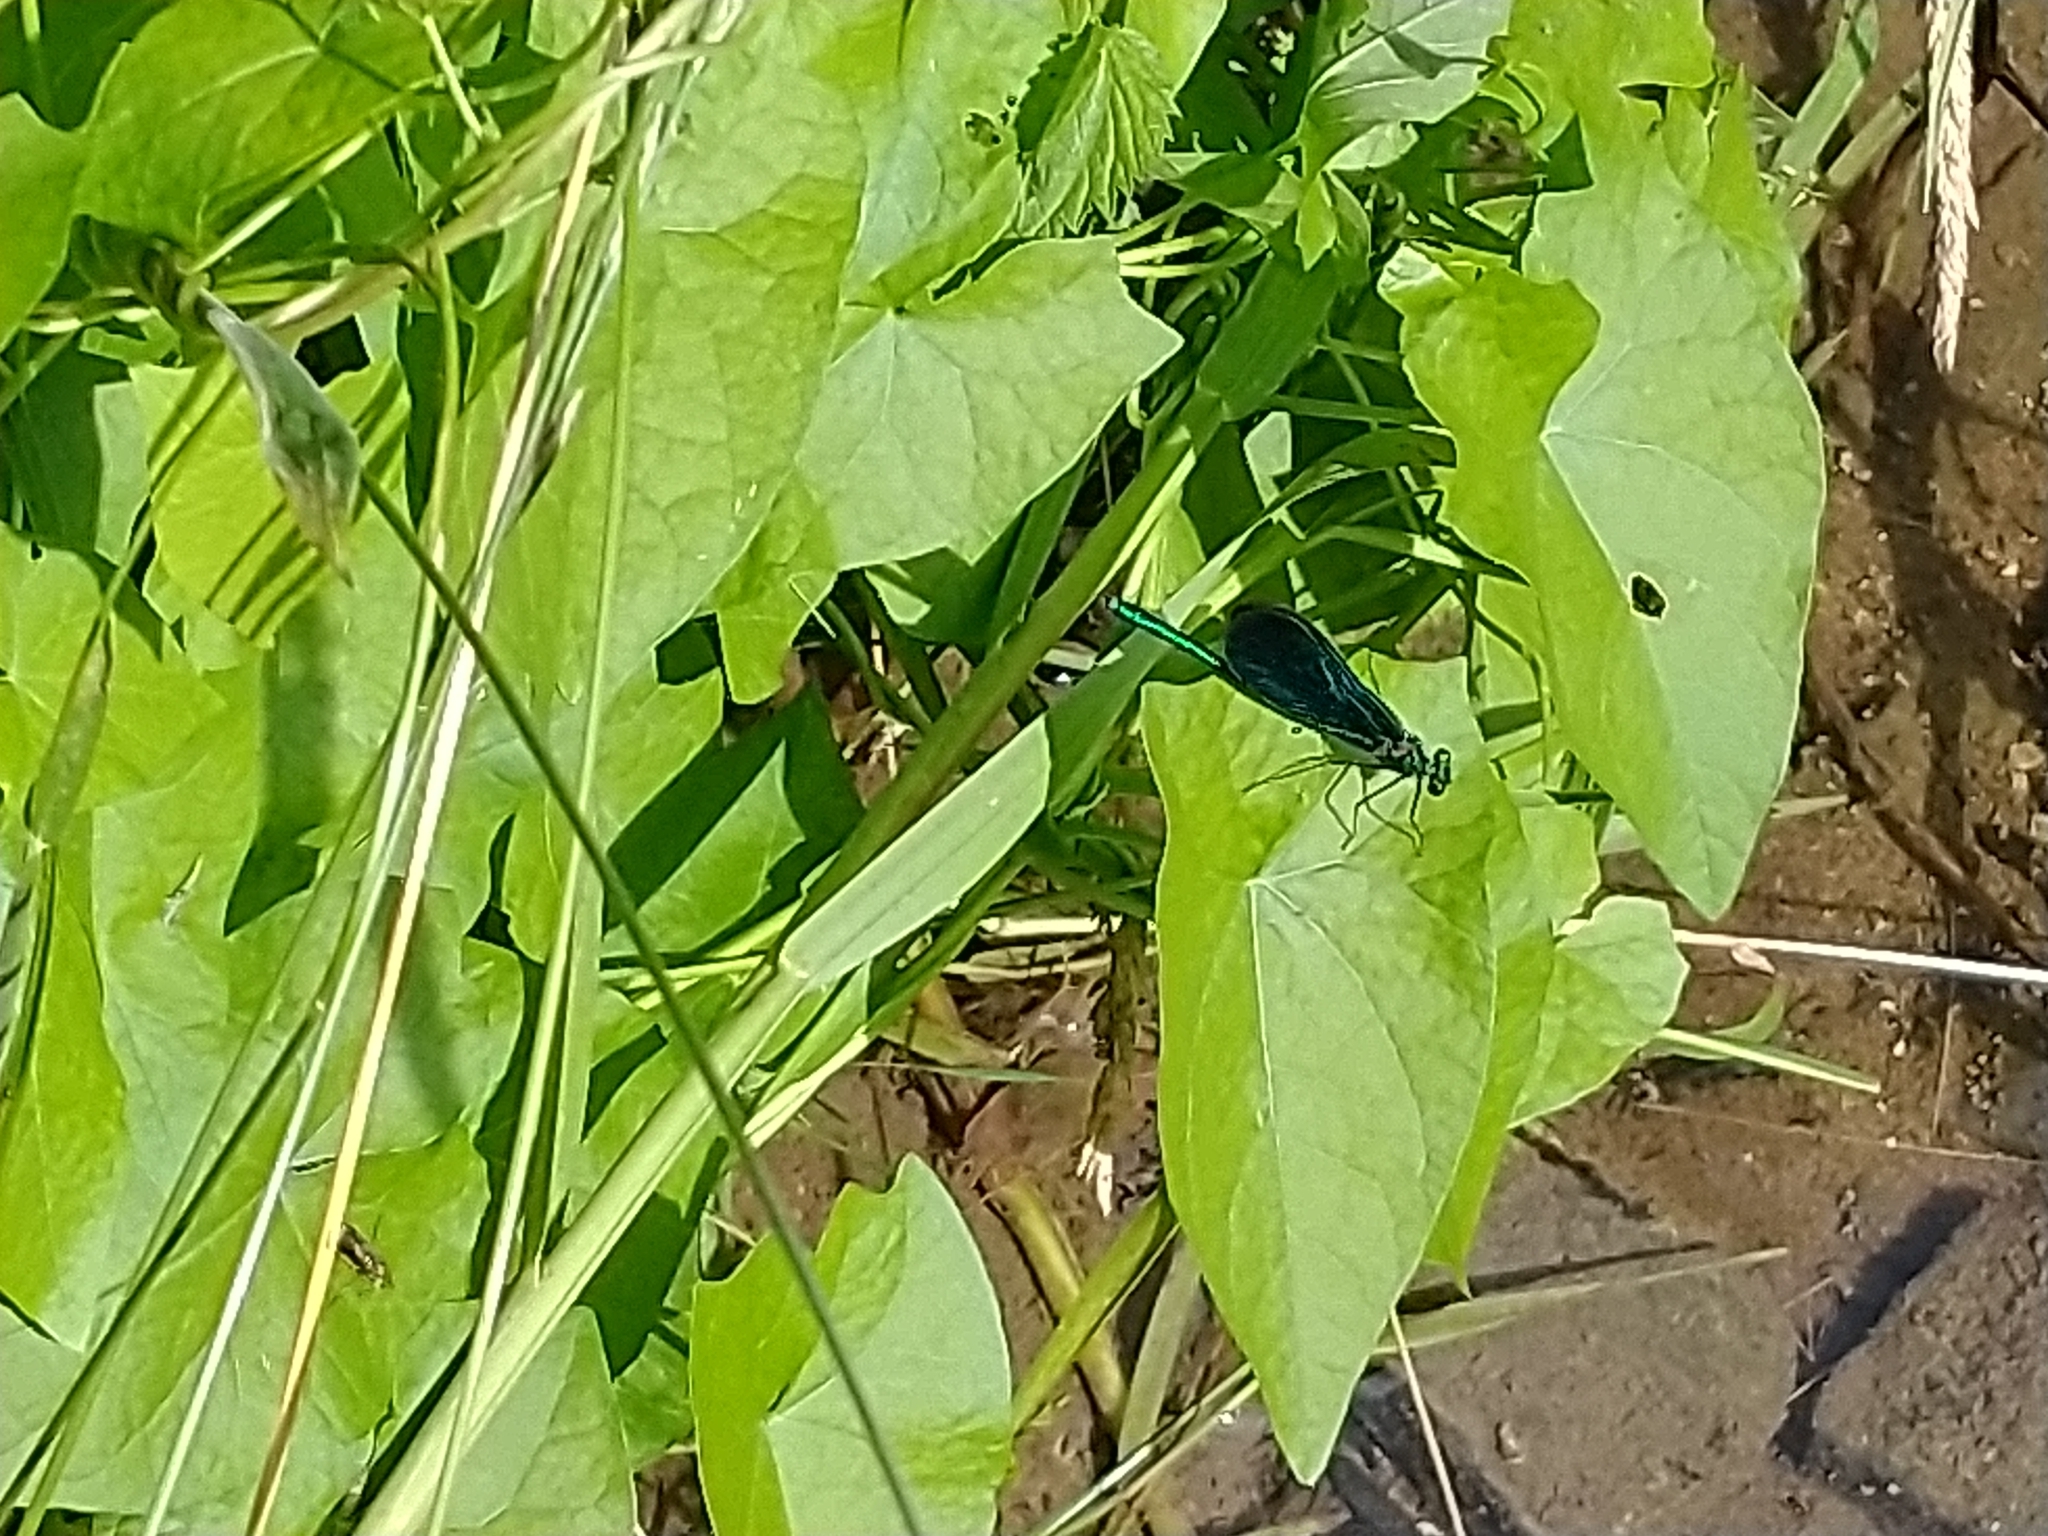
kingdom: Animalia
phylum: Arthropoda
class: Insecta
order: Odonata
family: Calopterygidae
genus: Calopteryx
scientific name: Calopteryx virgo
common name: Beautiful demoiselle
